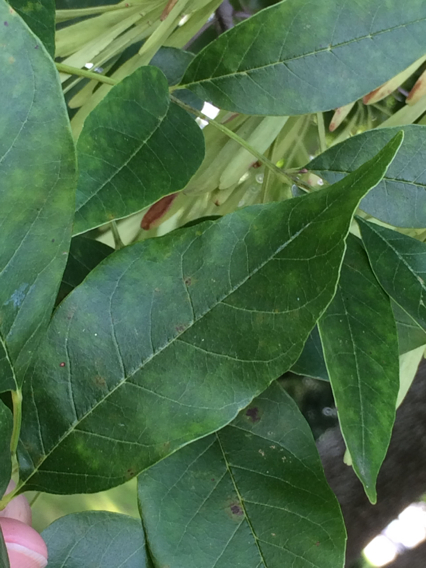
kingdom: Plantae
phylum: Tracheophyta
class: Magnoliopsida
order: Lamiales
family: Oleaceae
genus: Fraxinus
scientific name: Fraxinus pennsylvanica
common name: Green ash
